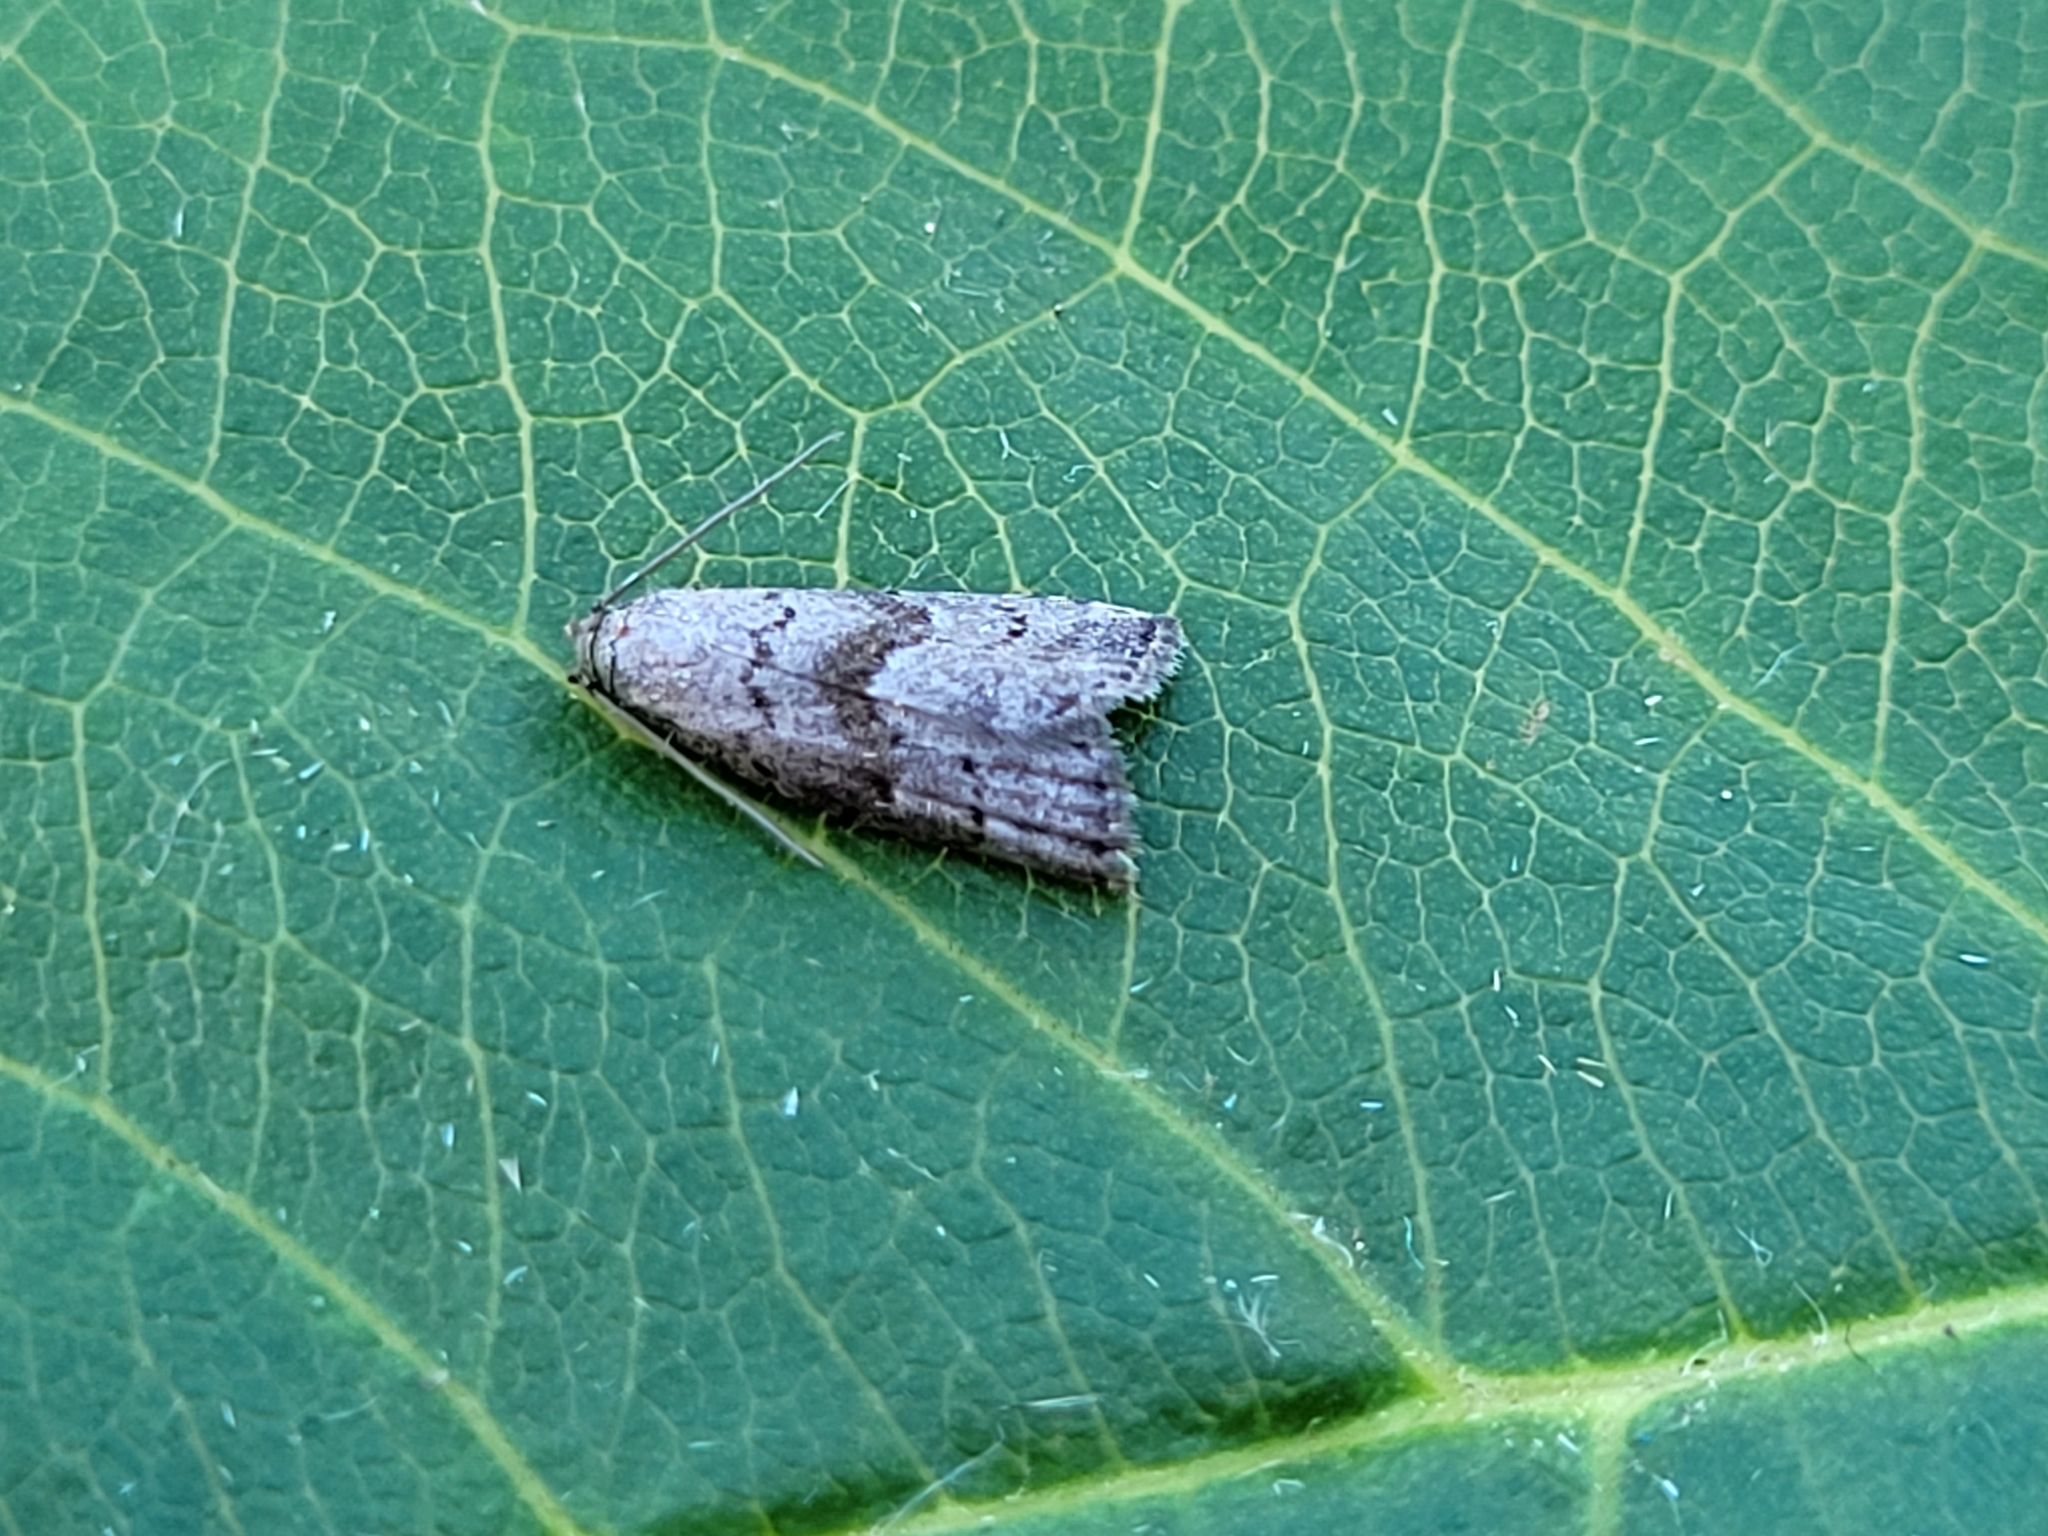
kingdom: Animalia
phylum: Arthropoda
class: Insecta
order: Lepidoptera
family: Erebidae
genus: Hypenodes
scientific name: Hypenodes fractilinea
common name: Broken-line hypenodes moth
